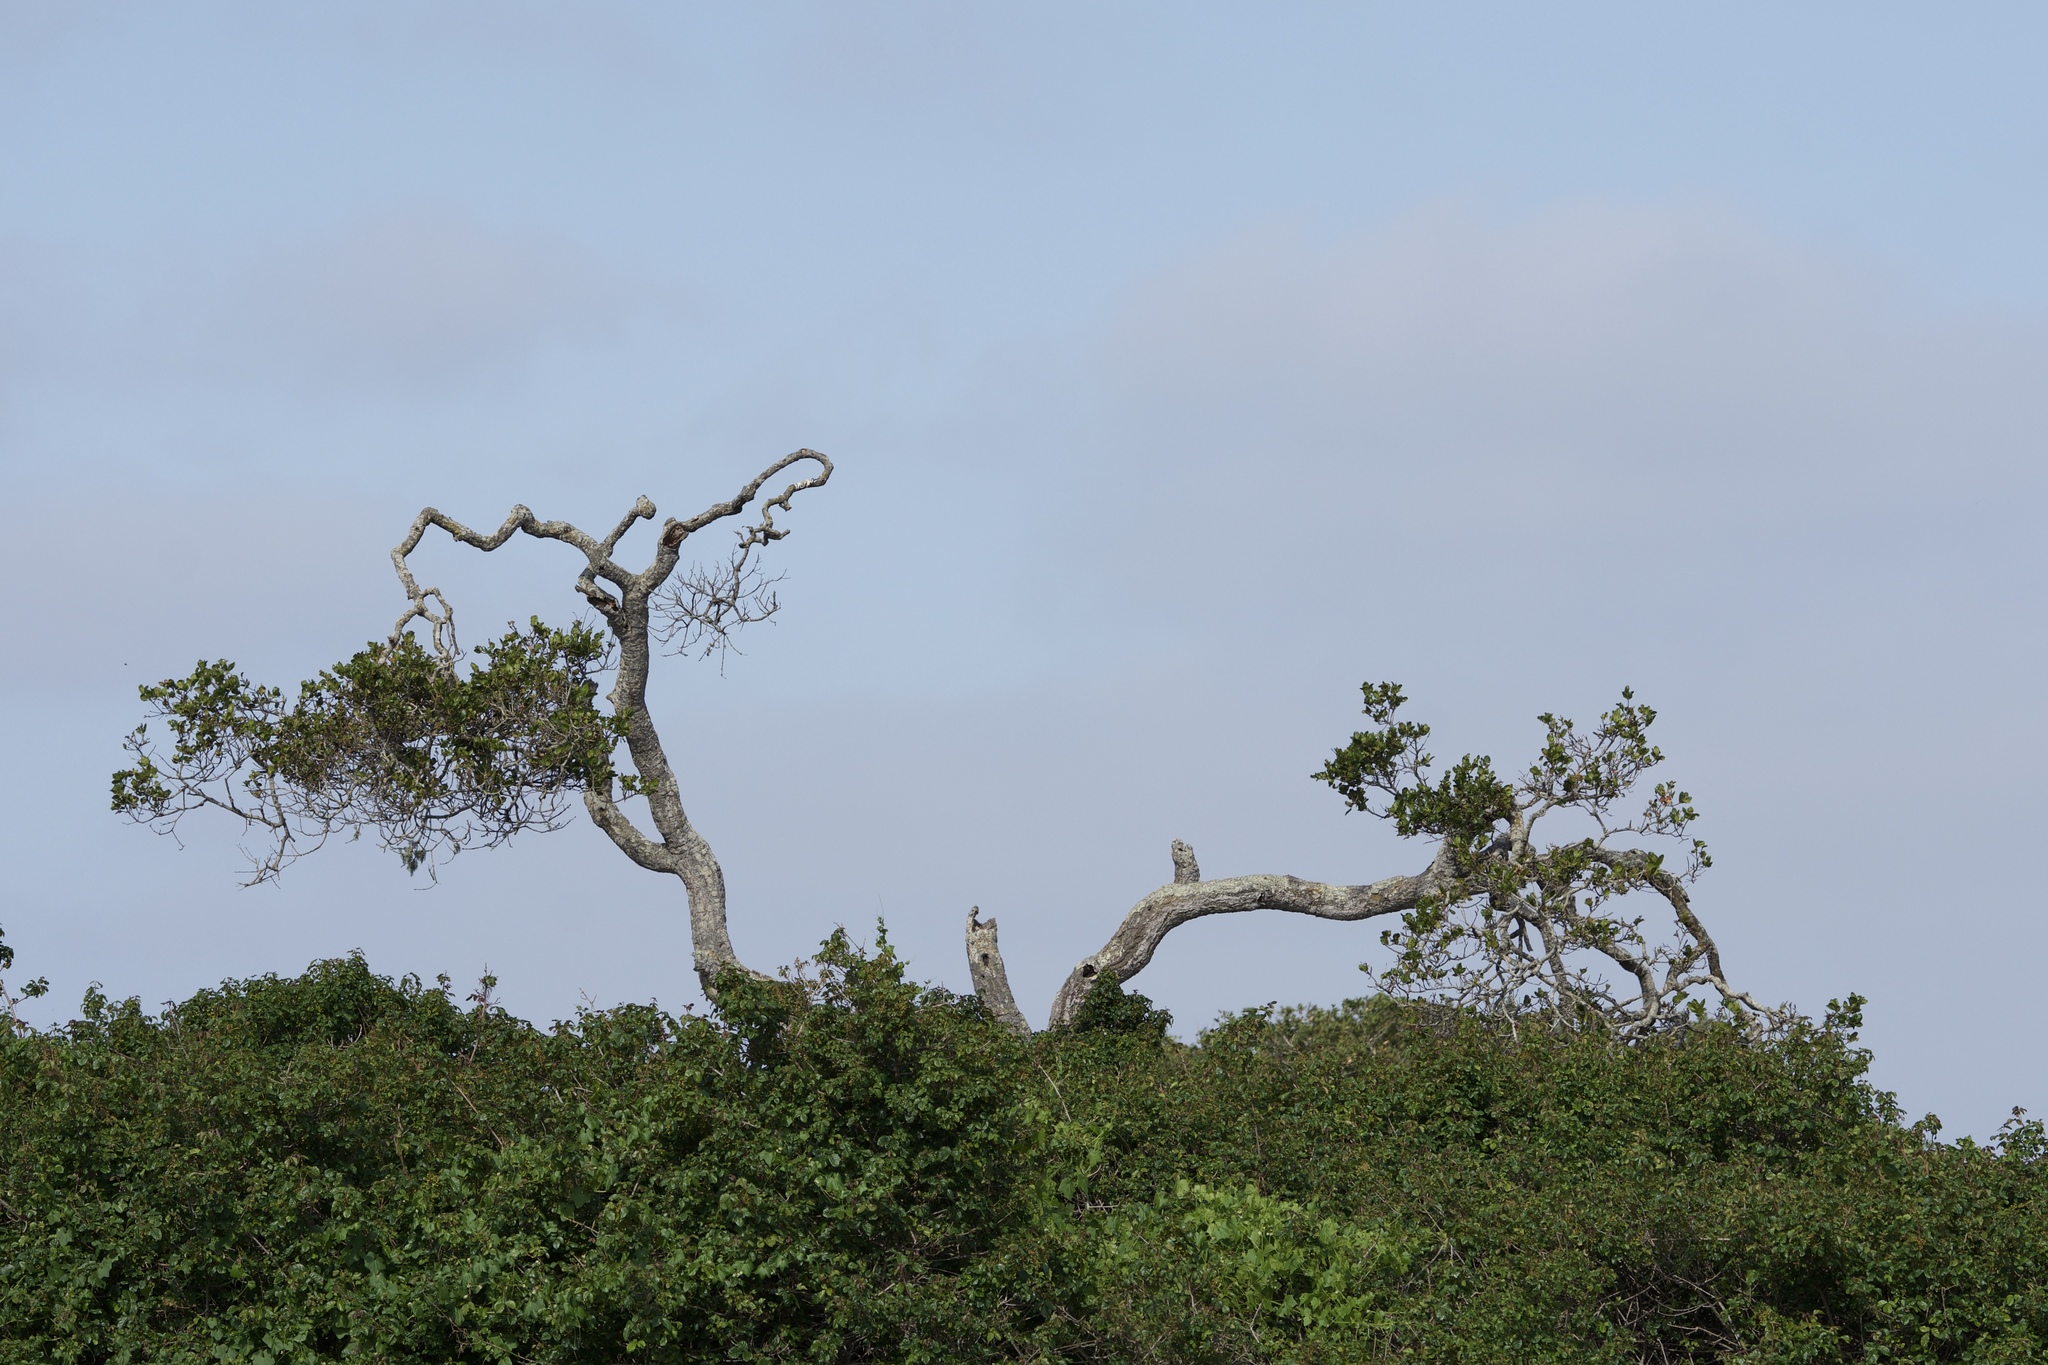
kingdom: Plantae
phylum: Tracheophyta
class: Magnoliopsida
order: Fagales
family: Fagaceae
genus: Quercus
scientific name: Quercus agrifolia
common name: California live oak
